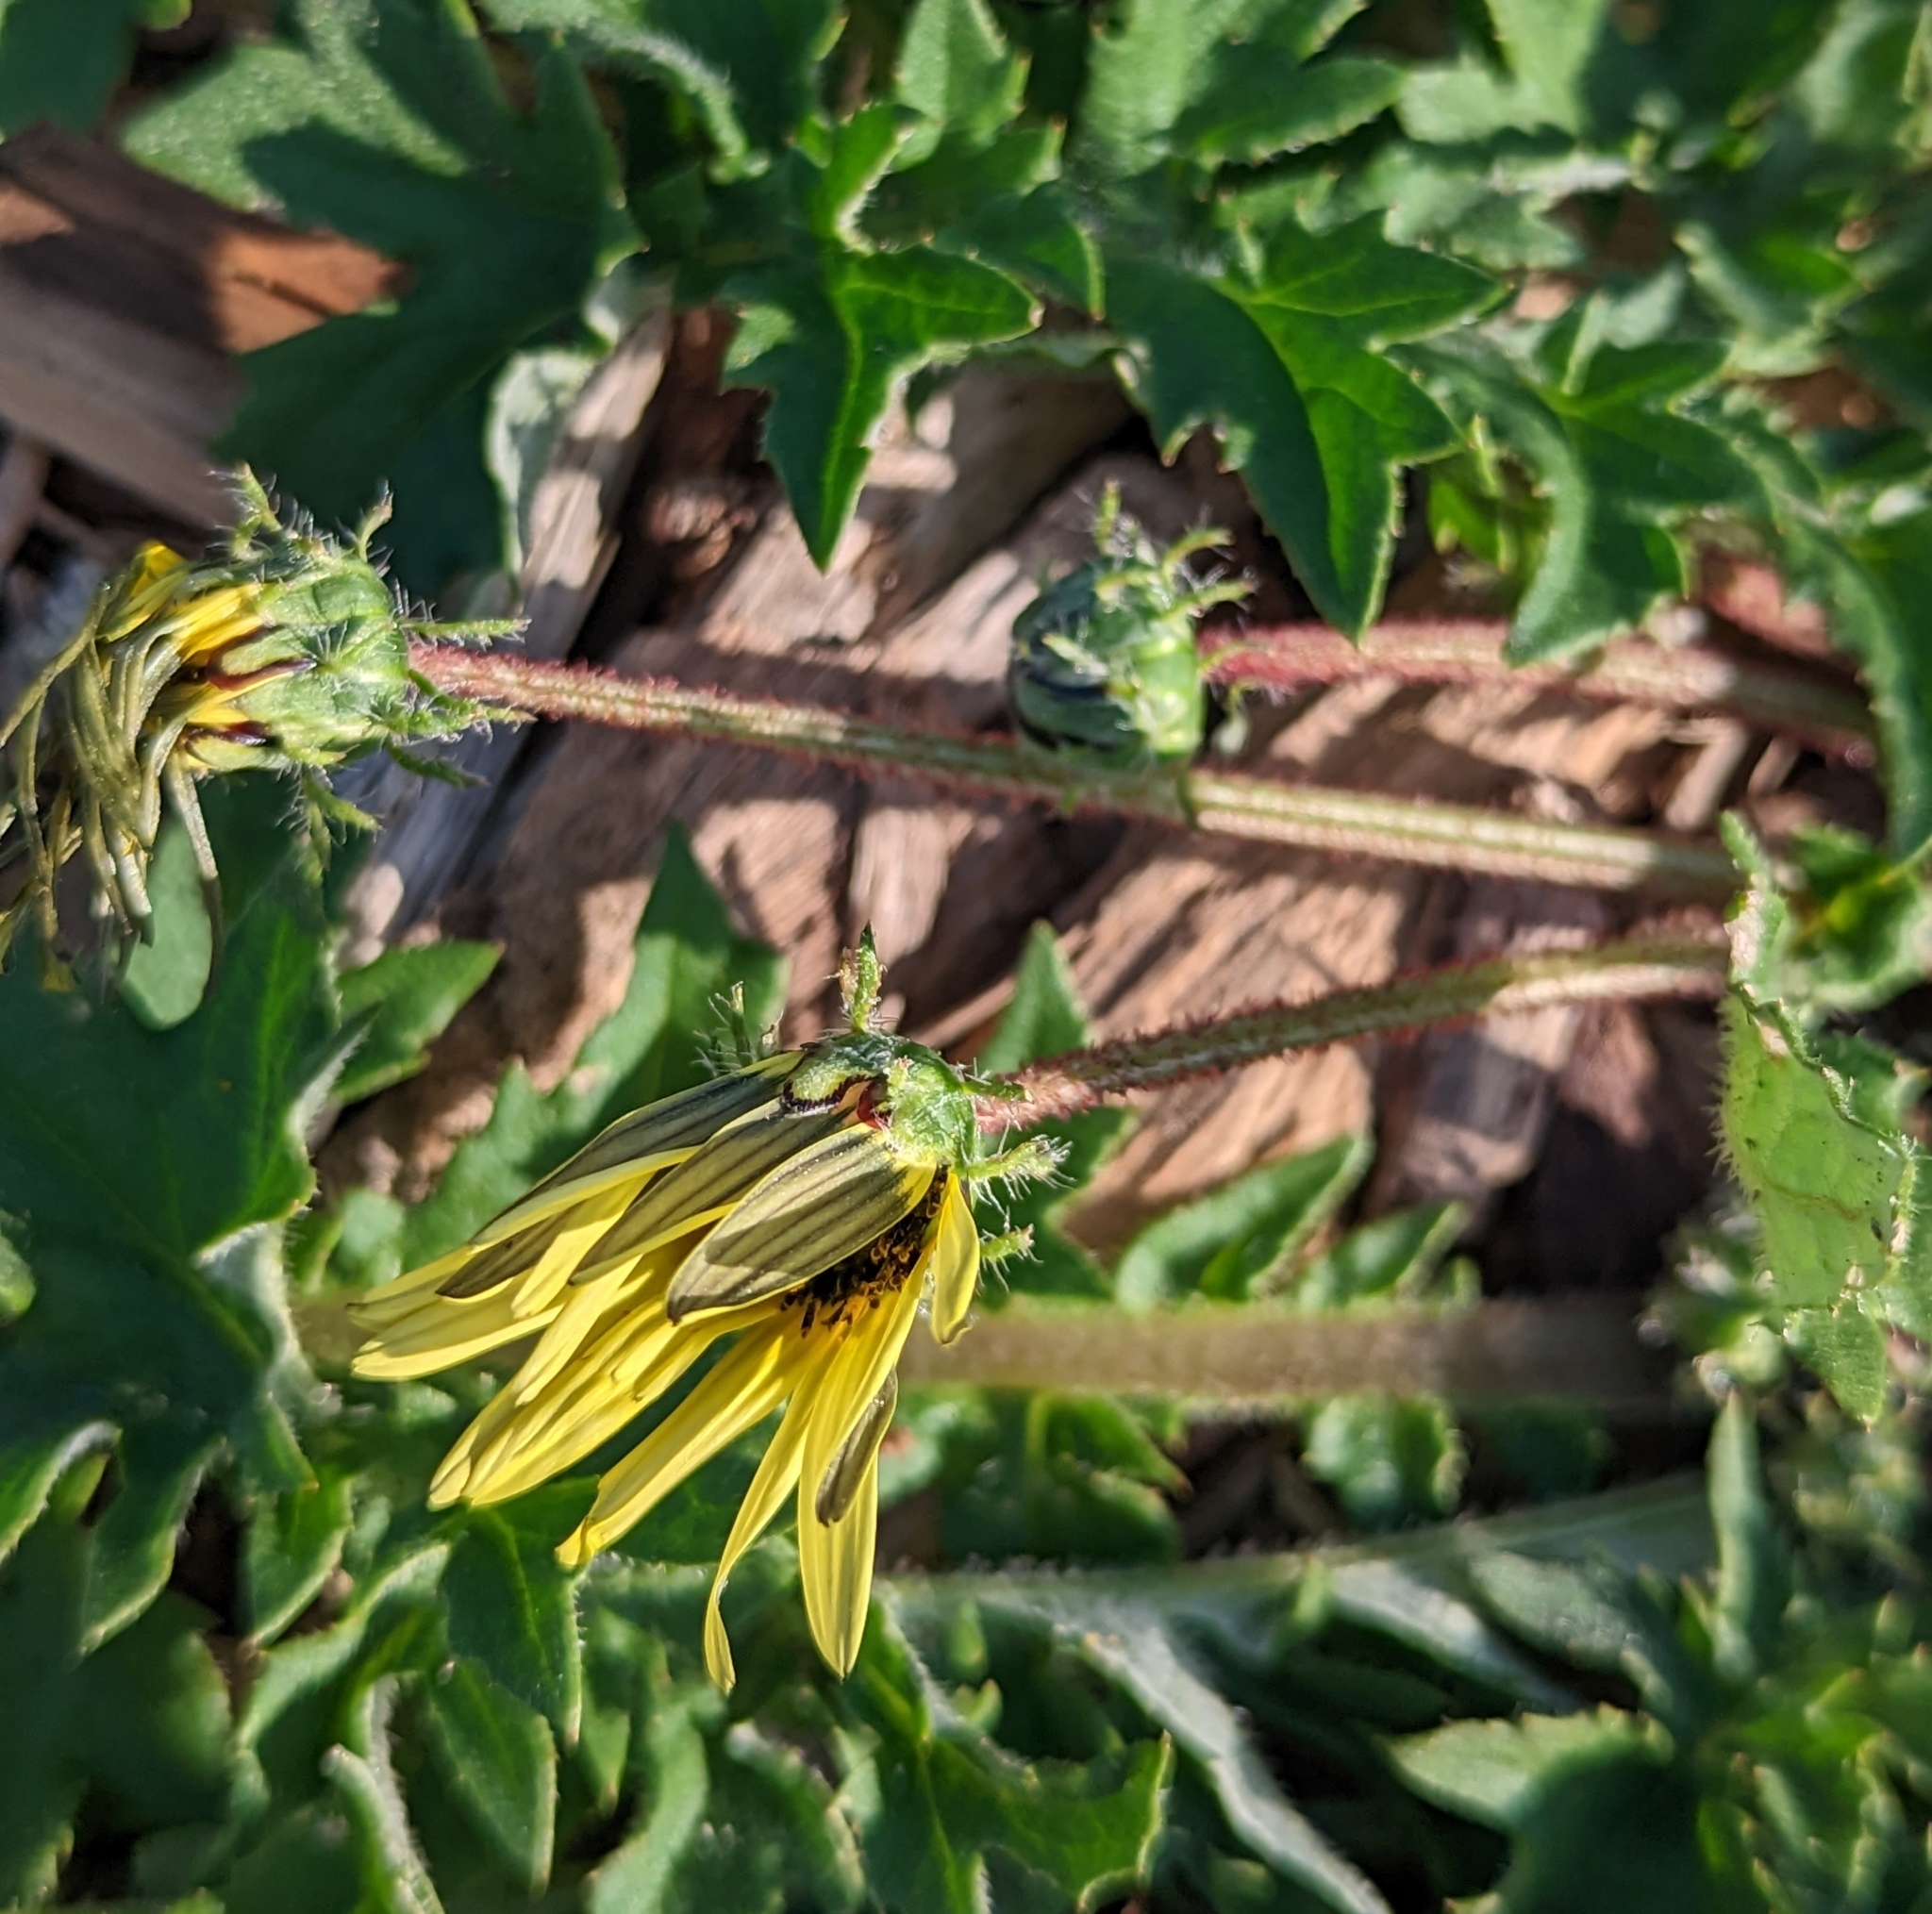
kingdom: Plantae
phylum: Tracheophyta
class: Magnoliopsida
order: Asterales
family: Asteraceae
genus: Arctotheca
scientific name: Arctotheca calendula
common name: Capeweed
